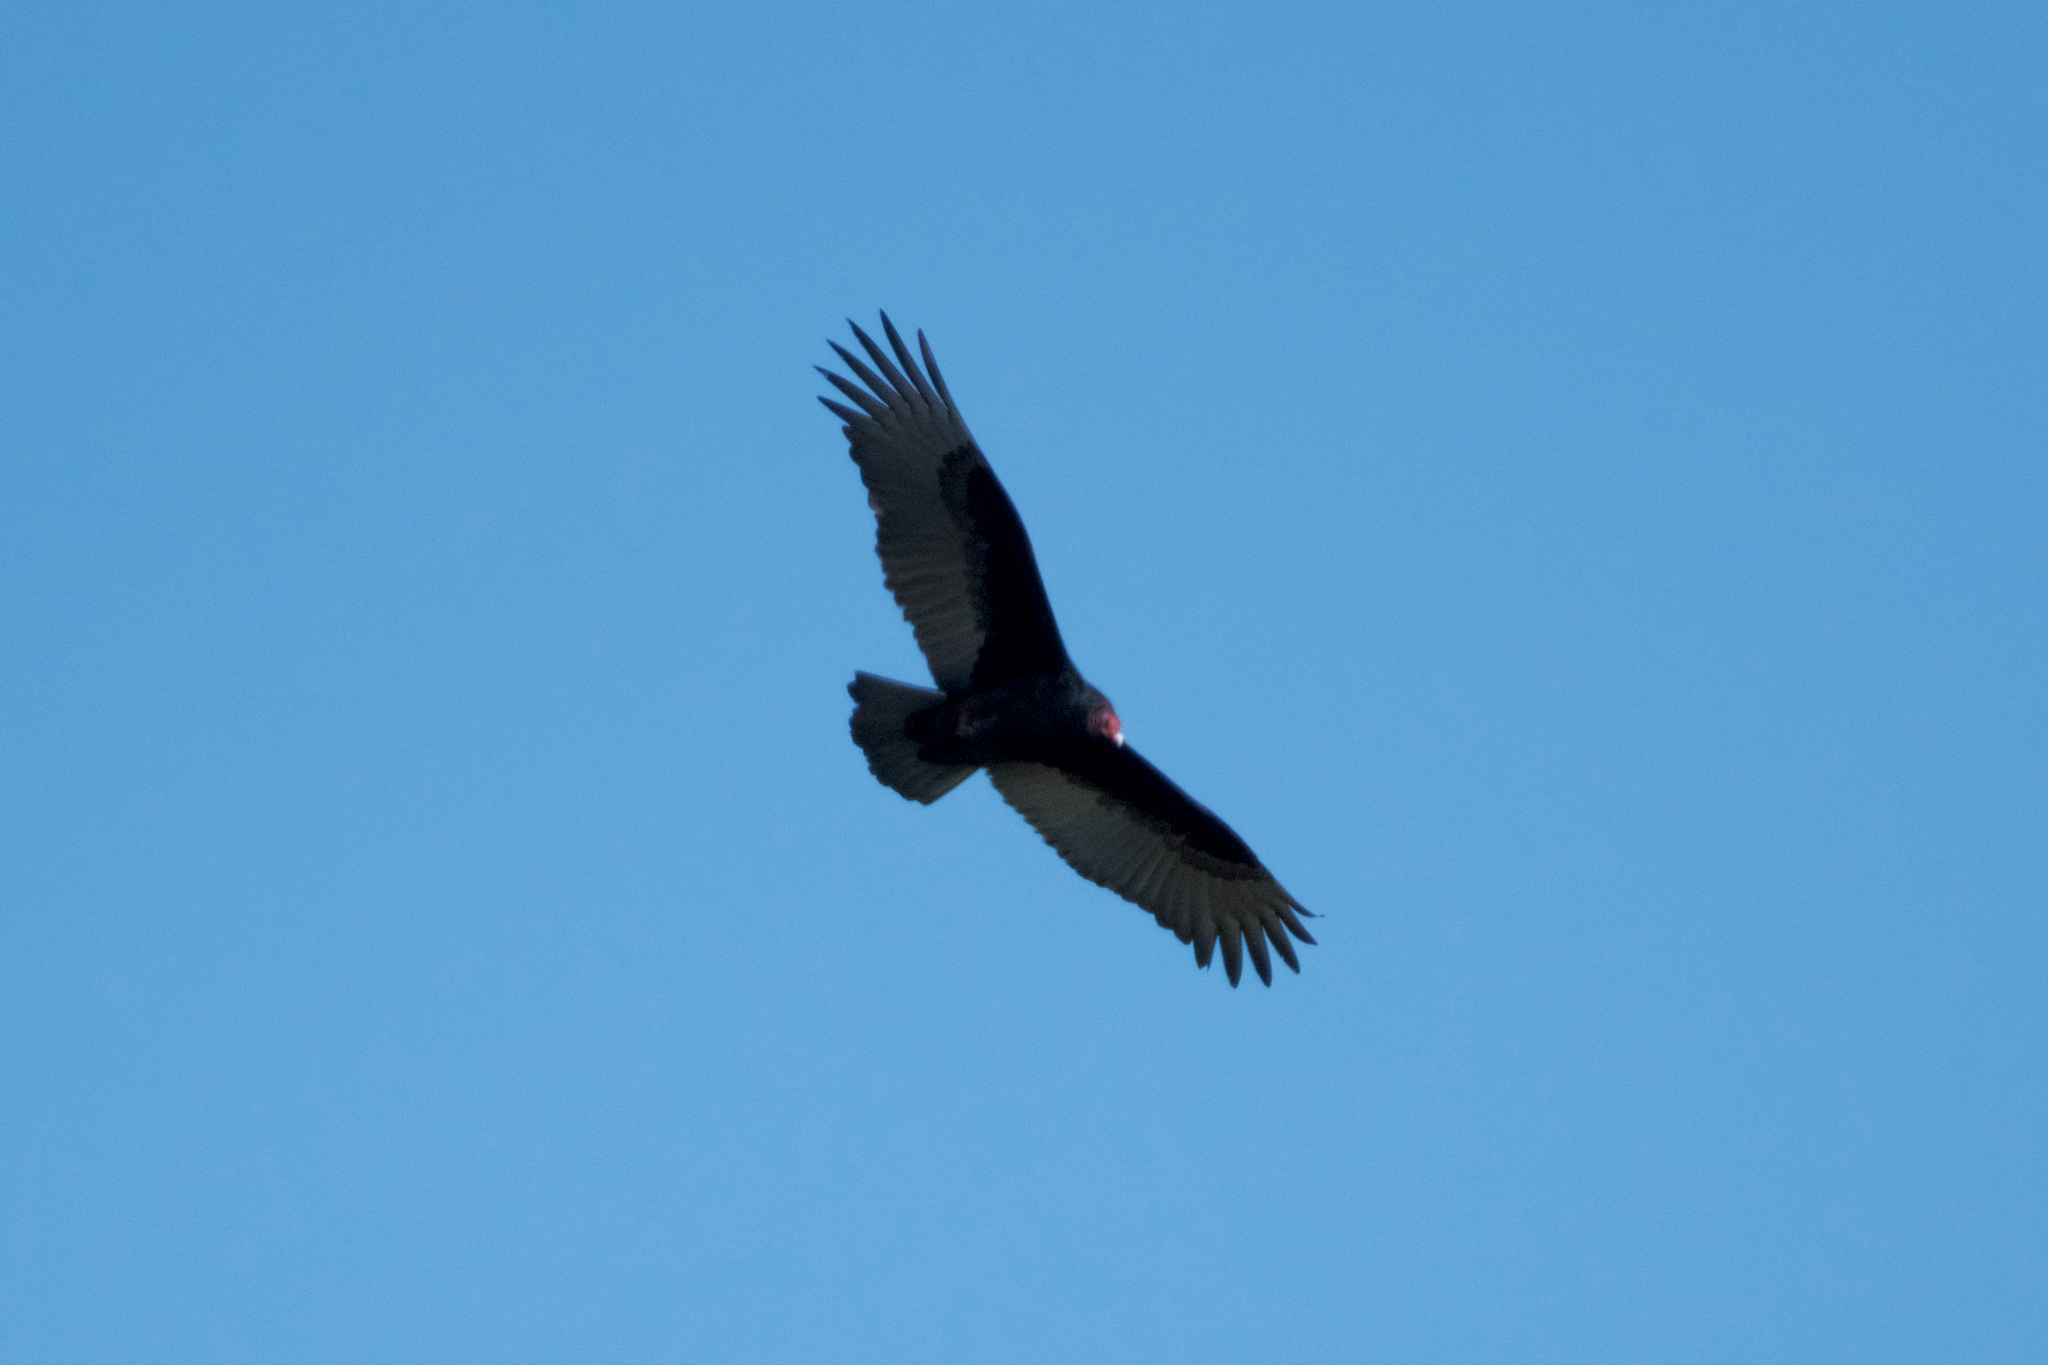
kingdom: Animalia
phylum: Chordata
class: Aves
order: Accipitriformes
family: Cathartidae
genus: Cathartes
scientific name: Cathartes aura
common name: Turkey vulture
